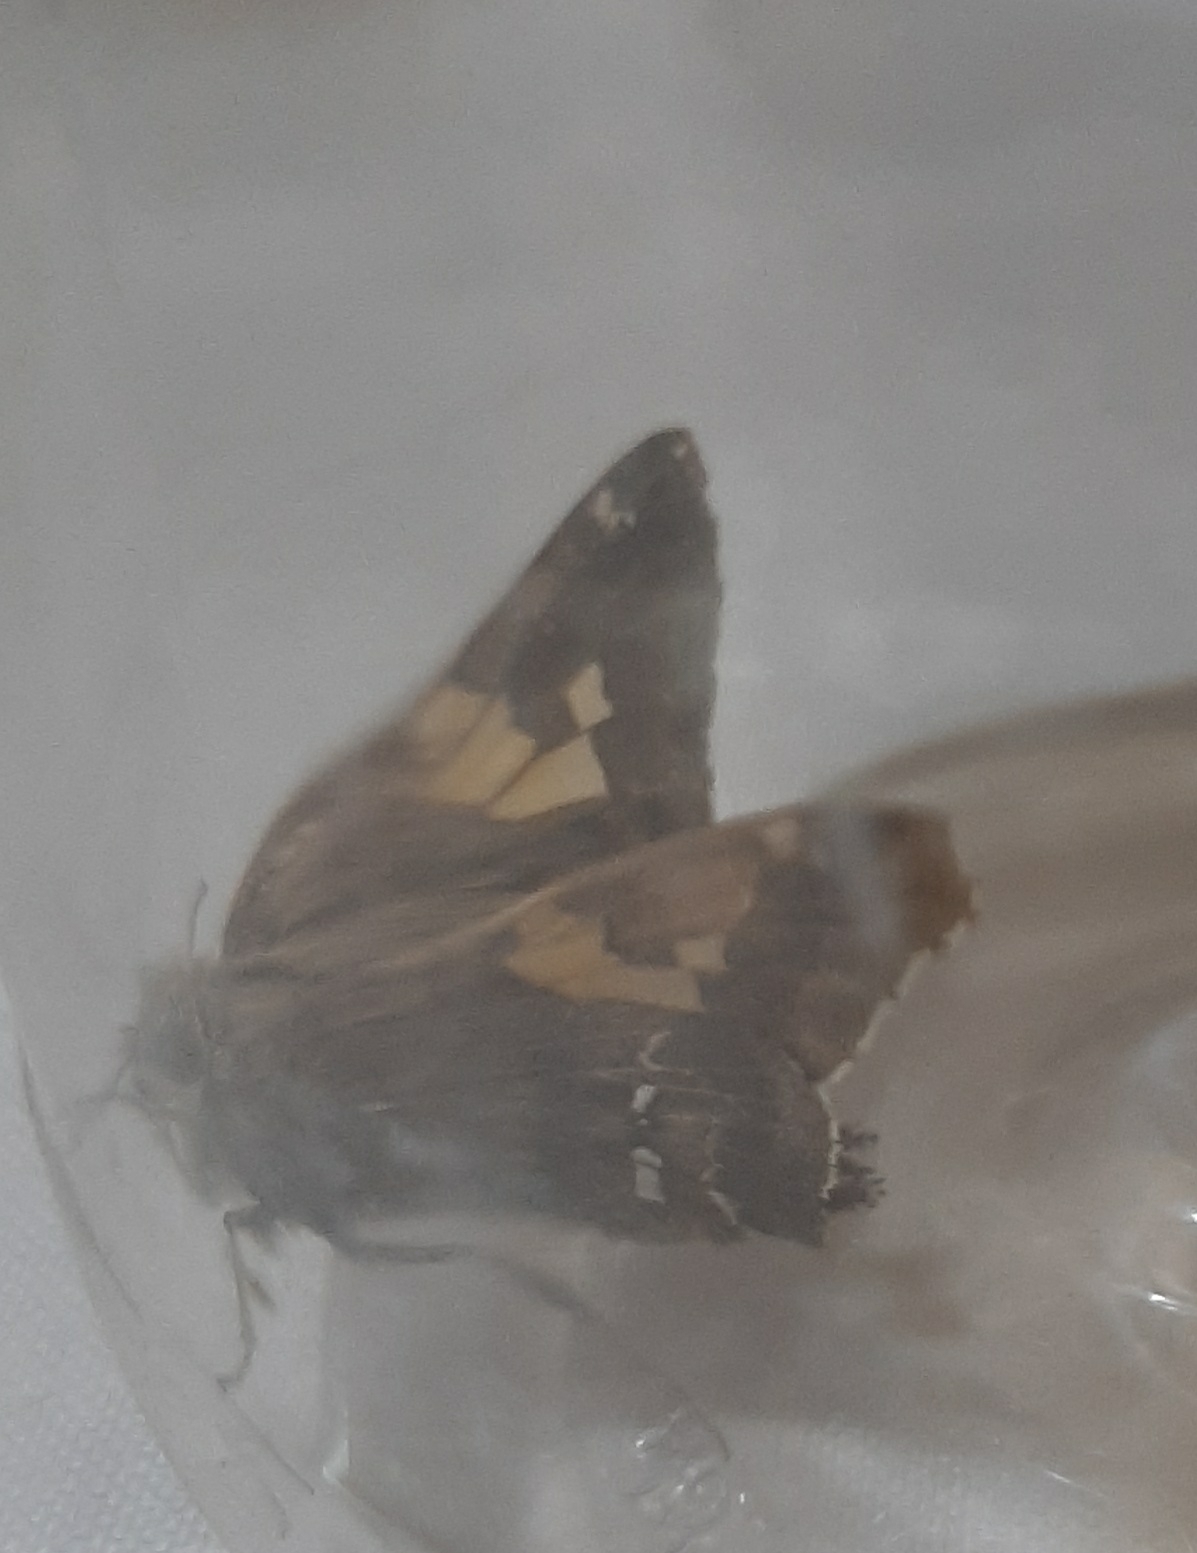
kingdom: Animalia
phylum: Arthropoda
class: Insecta
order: Lepidoptera
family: Hesperiidae
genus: Epargyreus
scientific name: Epargyreus tmolis
